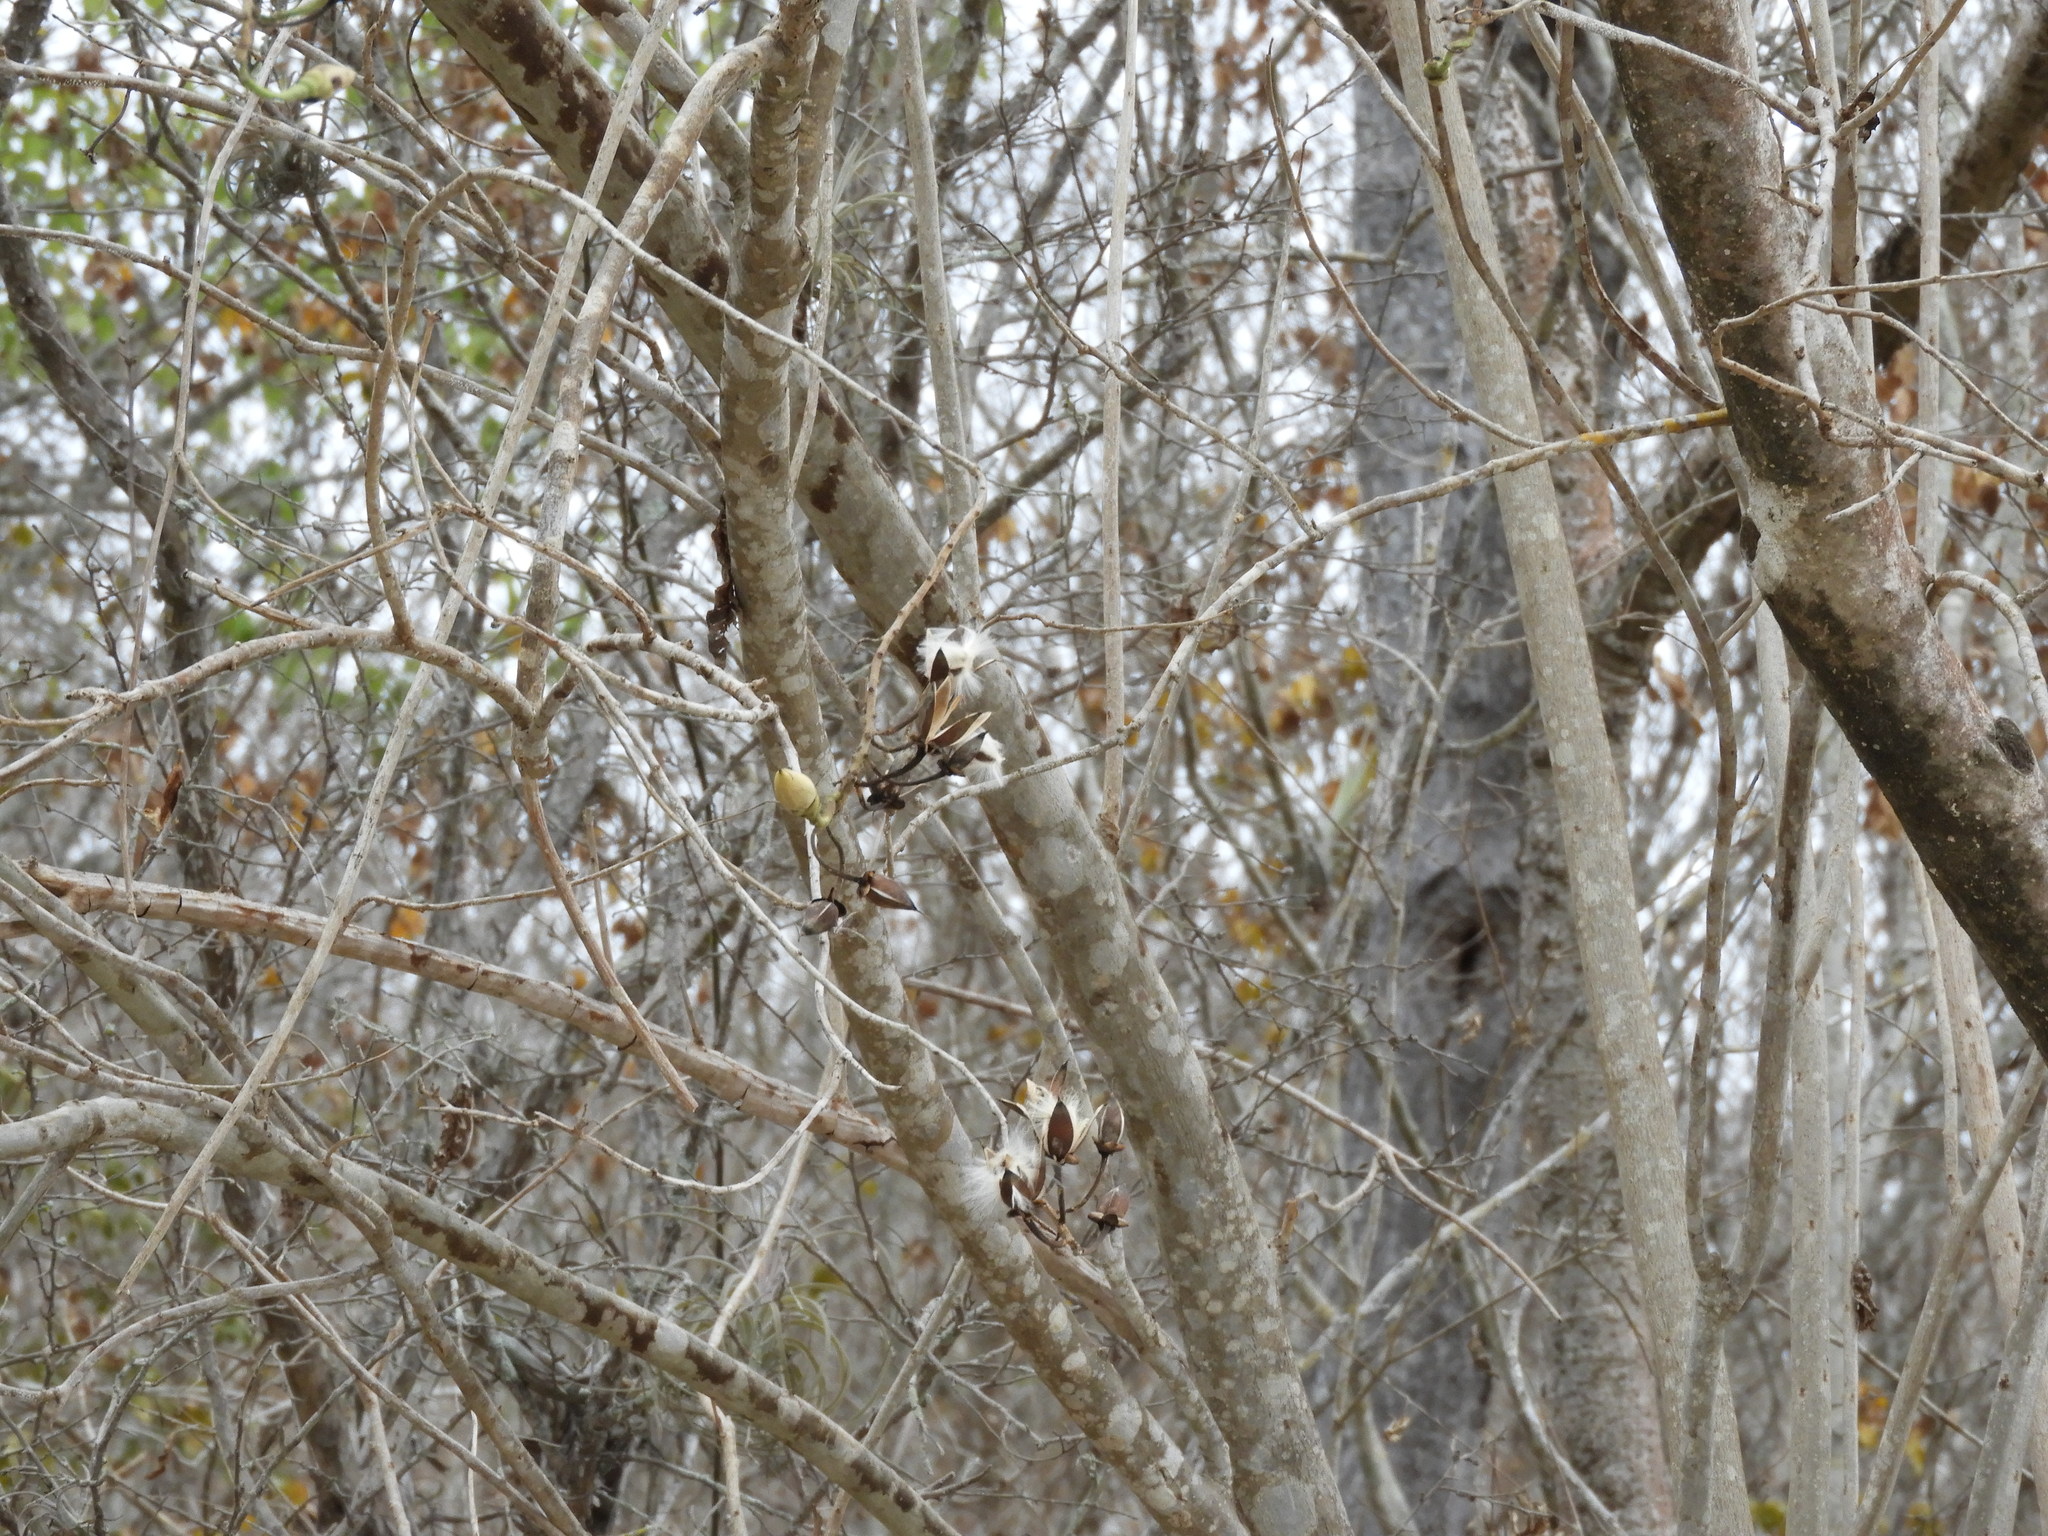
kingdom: Plantae
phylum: Tracheophyta
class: Magnoliopsida
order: Solanales
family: Convolvulaceae
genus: Ipomoea
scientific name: Ipomoea arborescens
